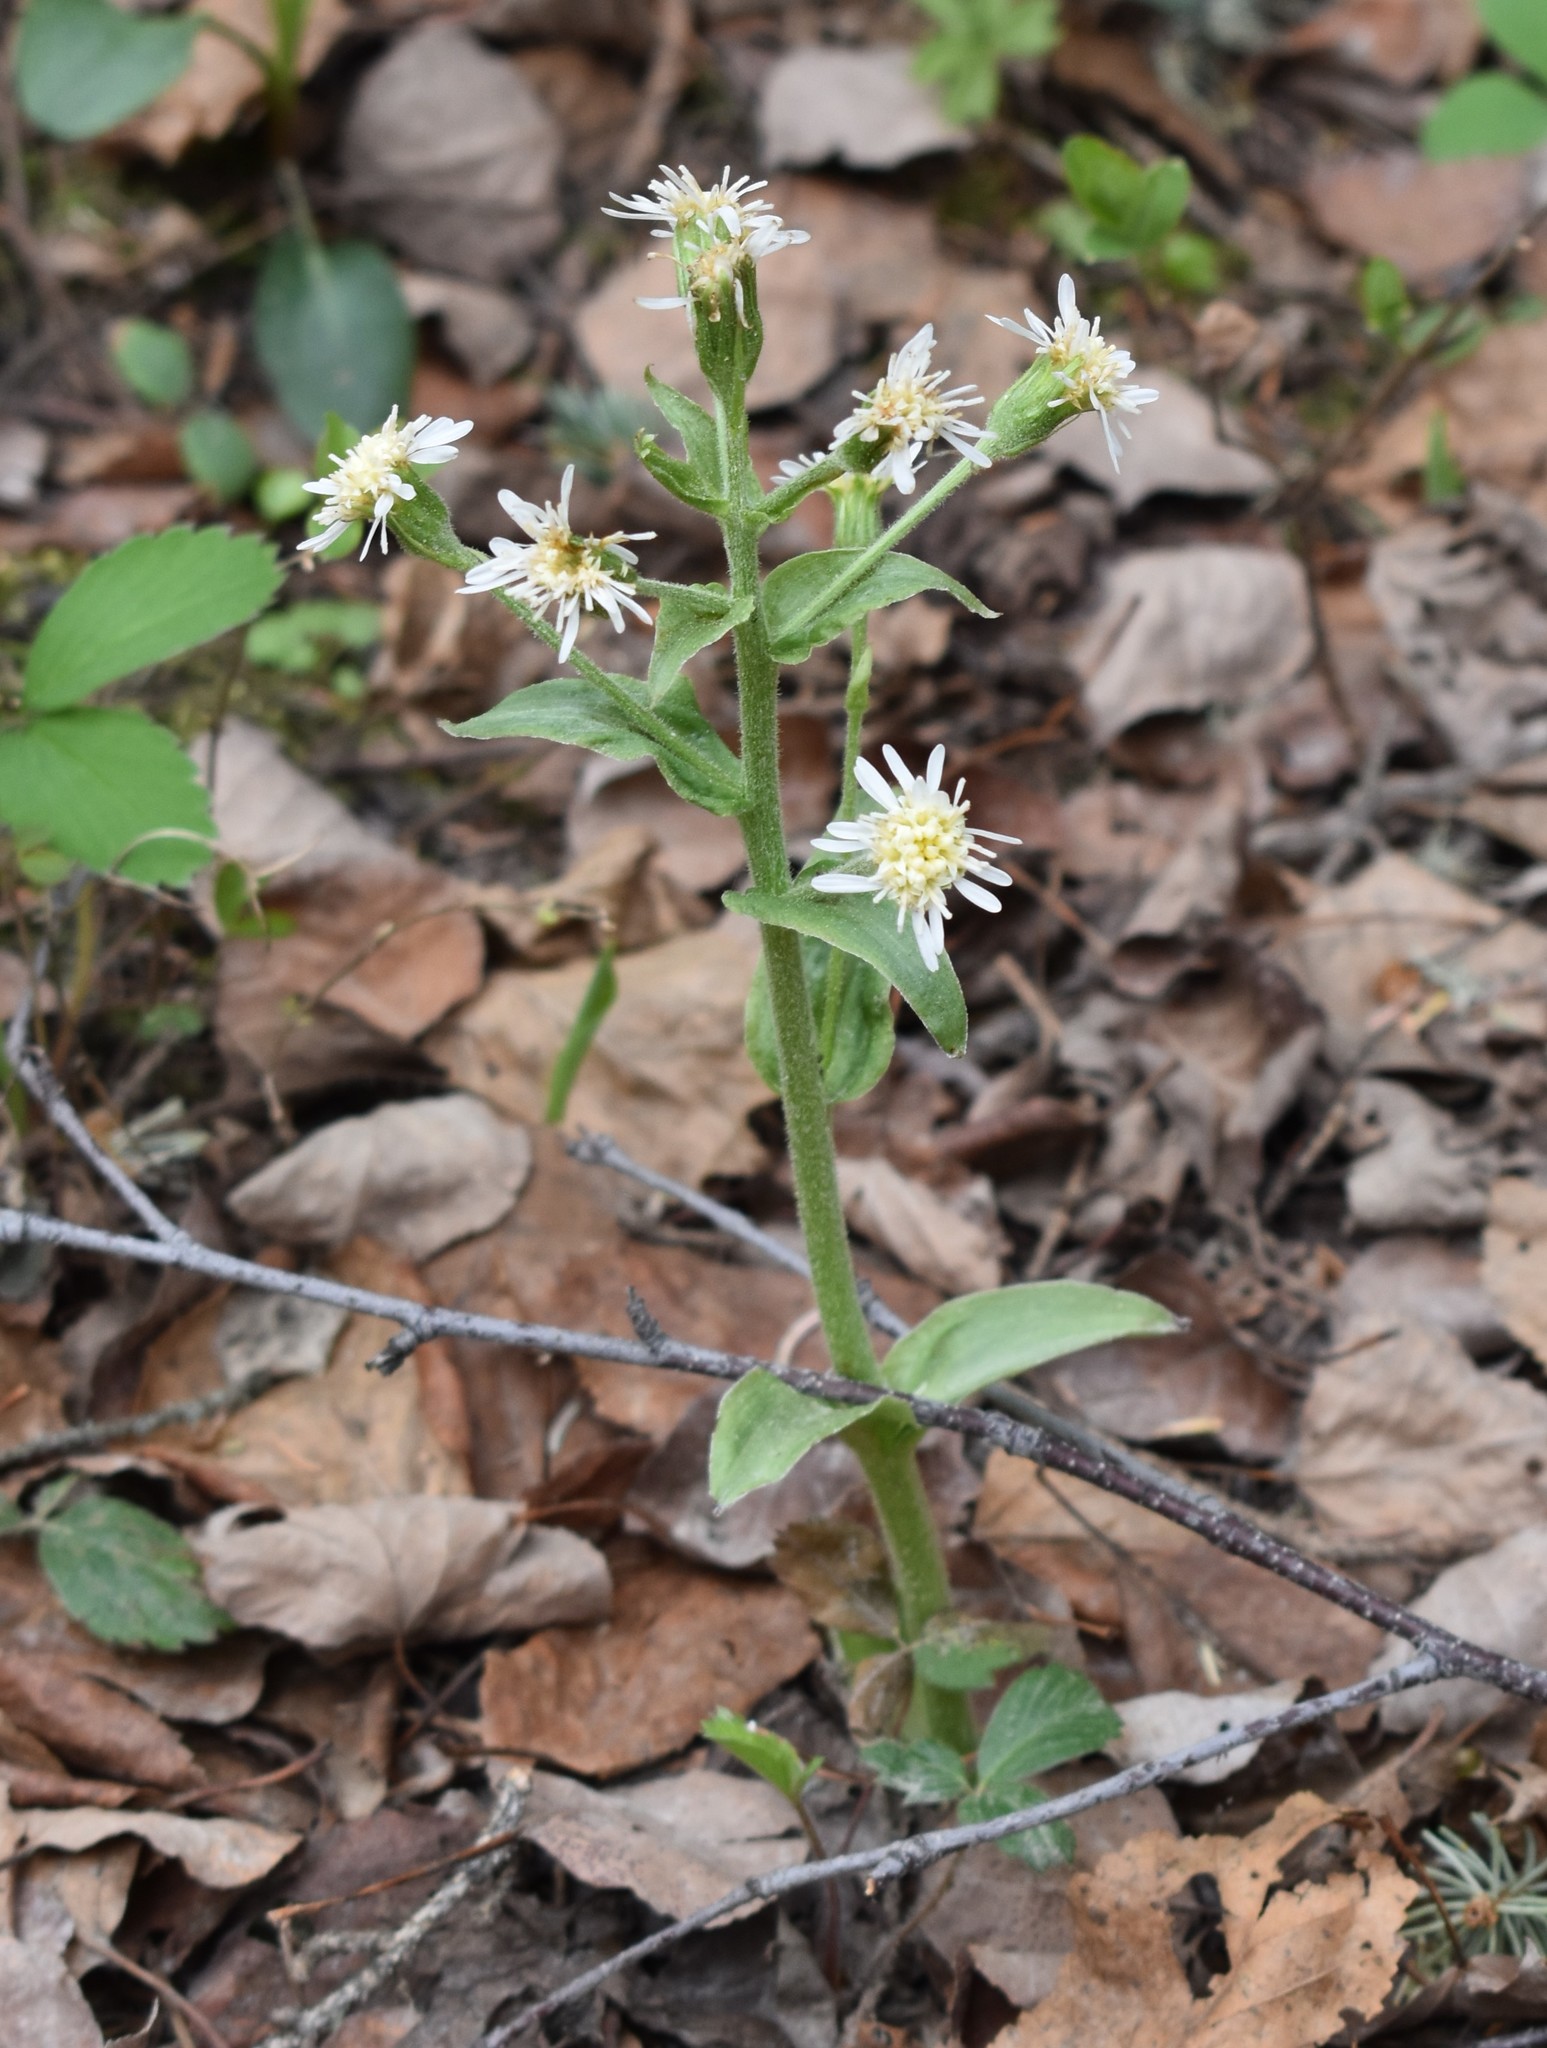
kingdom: Plantae
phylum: Tracheophyta
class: Magnoliopsida
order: Asterales
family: Asteraceae
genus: Petasites
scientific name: Petasites frigidus
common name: Arctic butterbur
